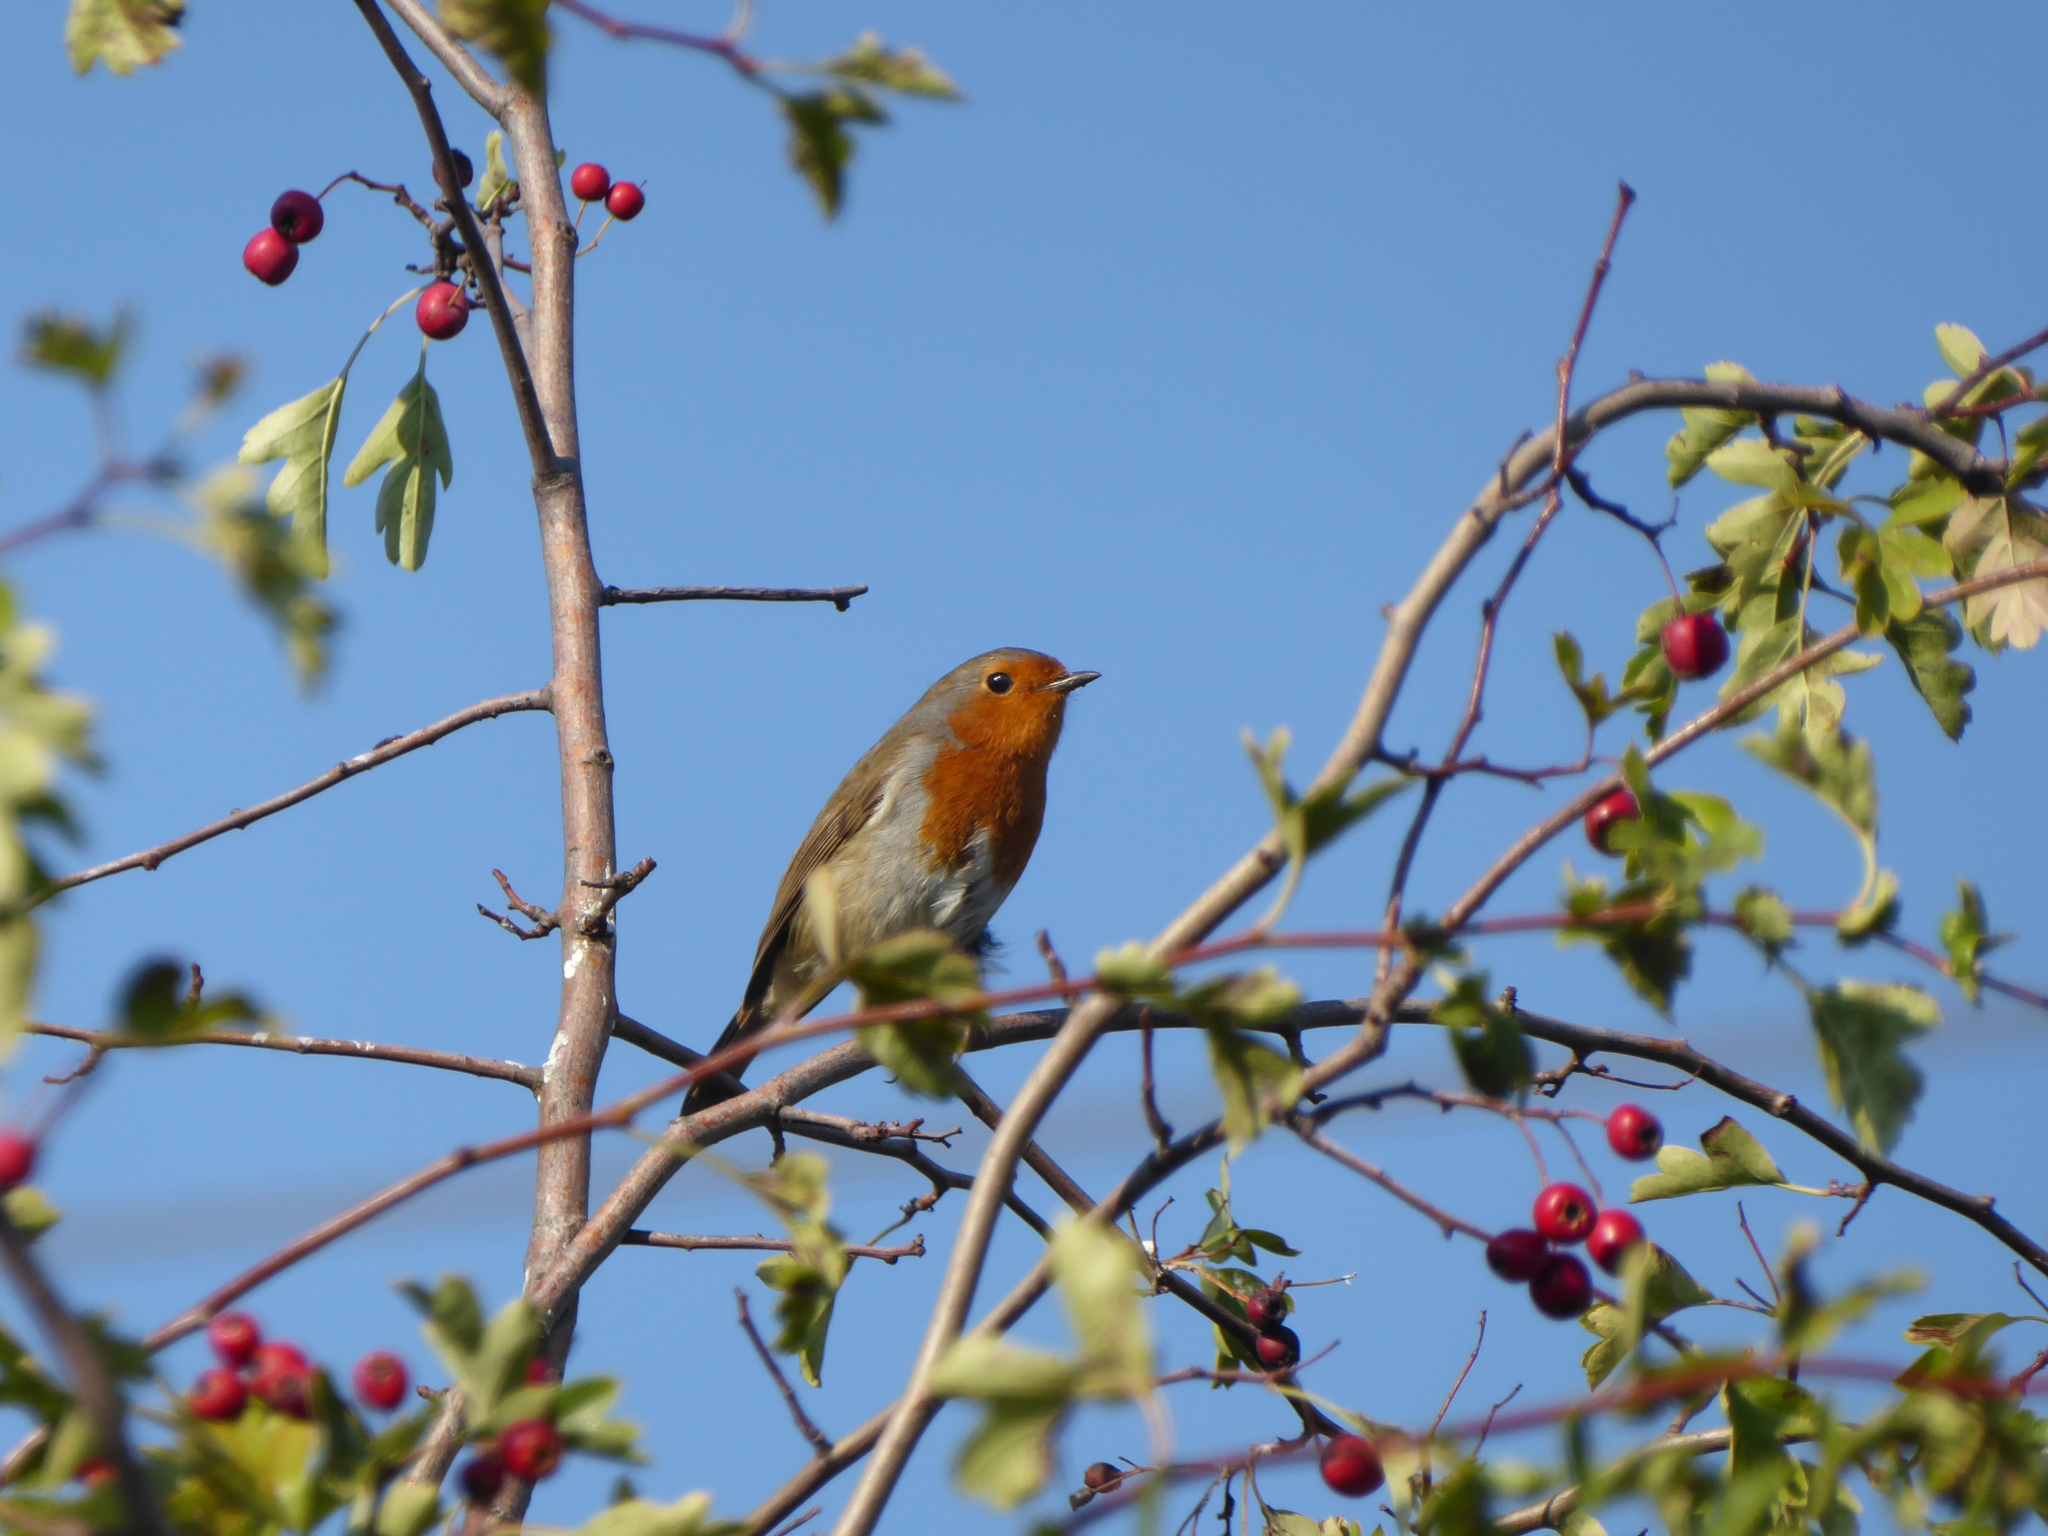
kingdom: Animalia
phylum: Chordata
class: Aves
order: Passeriformes
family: Muscicapidae
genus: Erithacus
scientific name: Erithacus rubecula
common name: European robin
